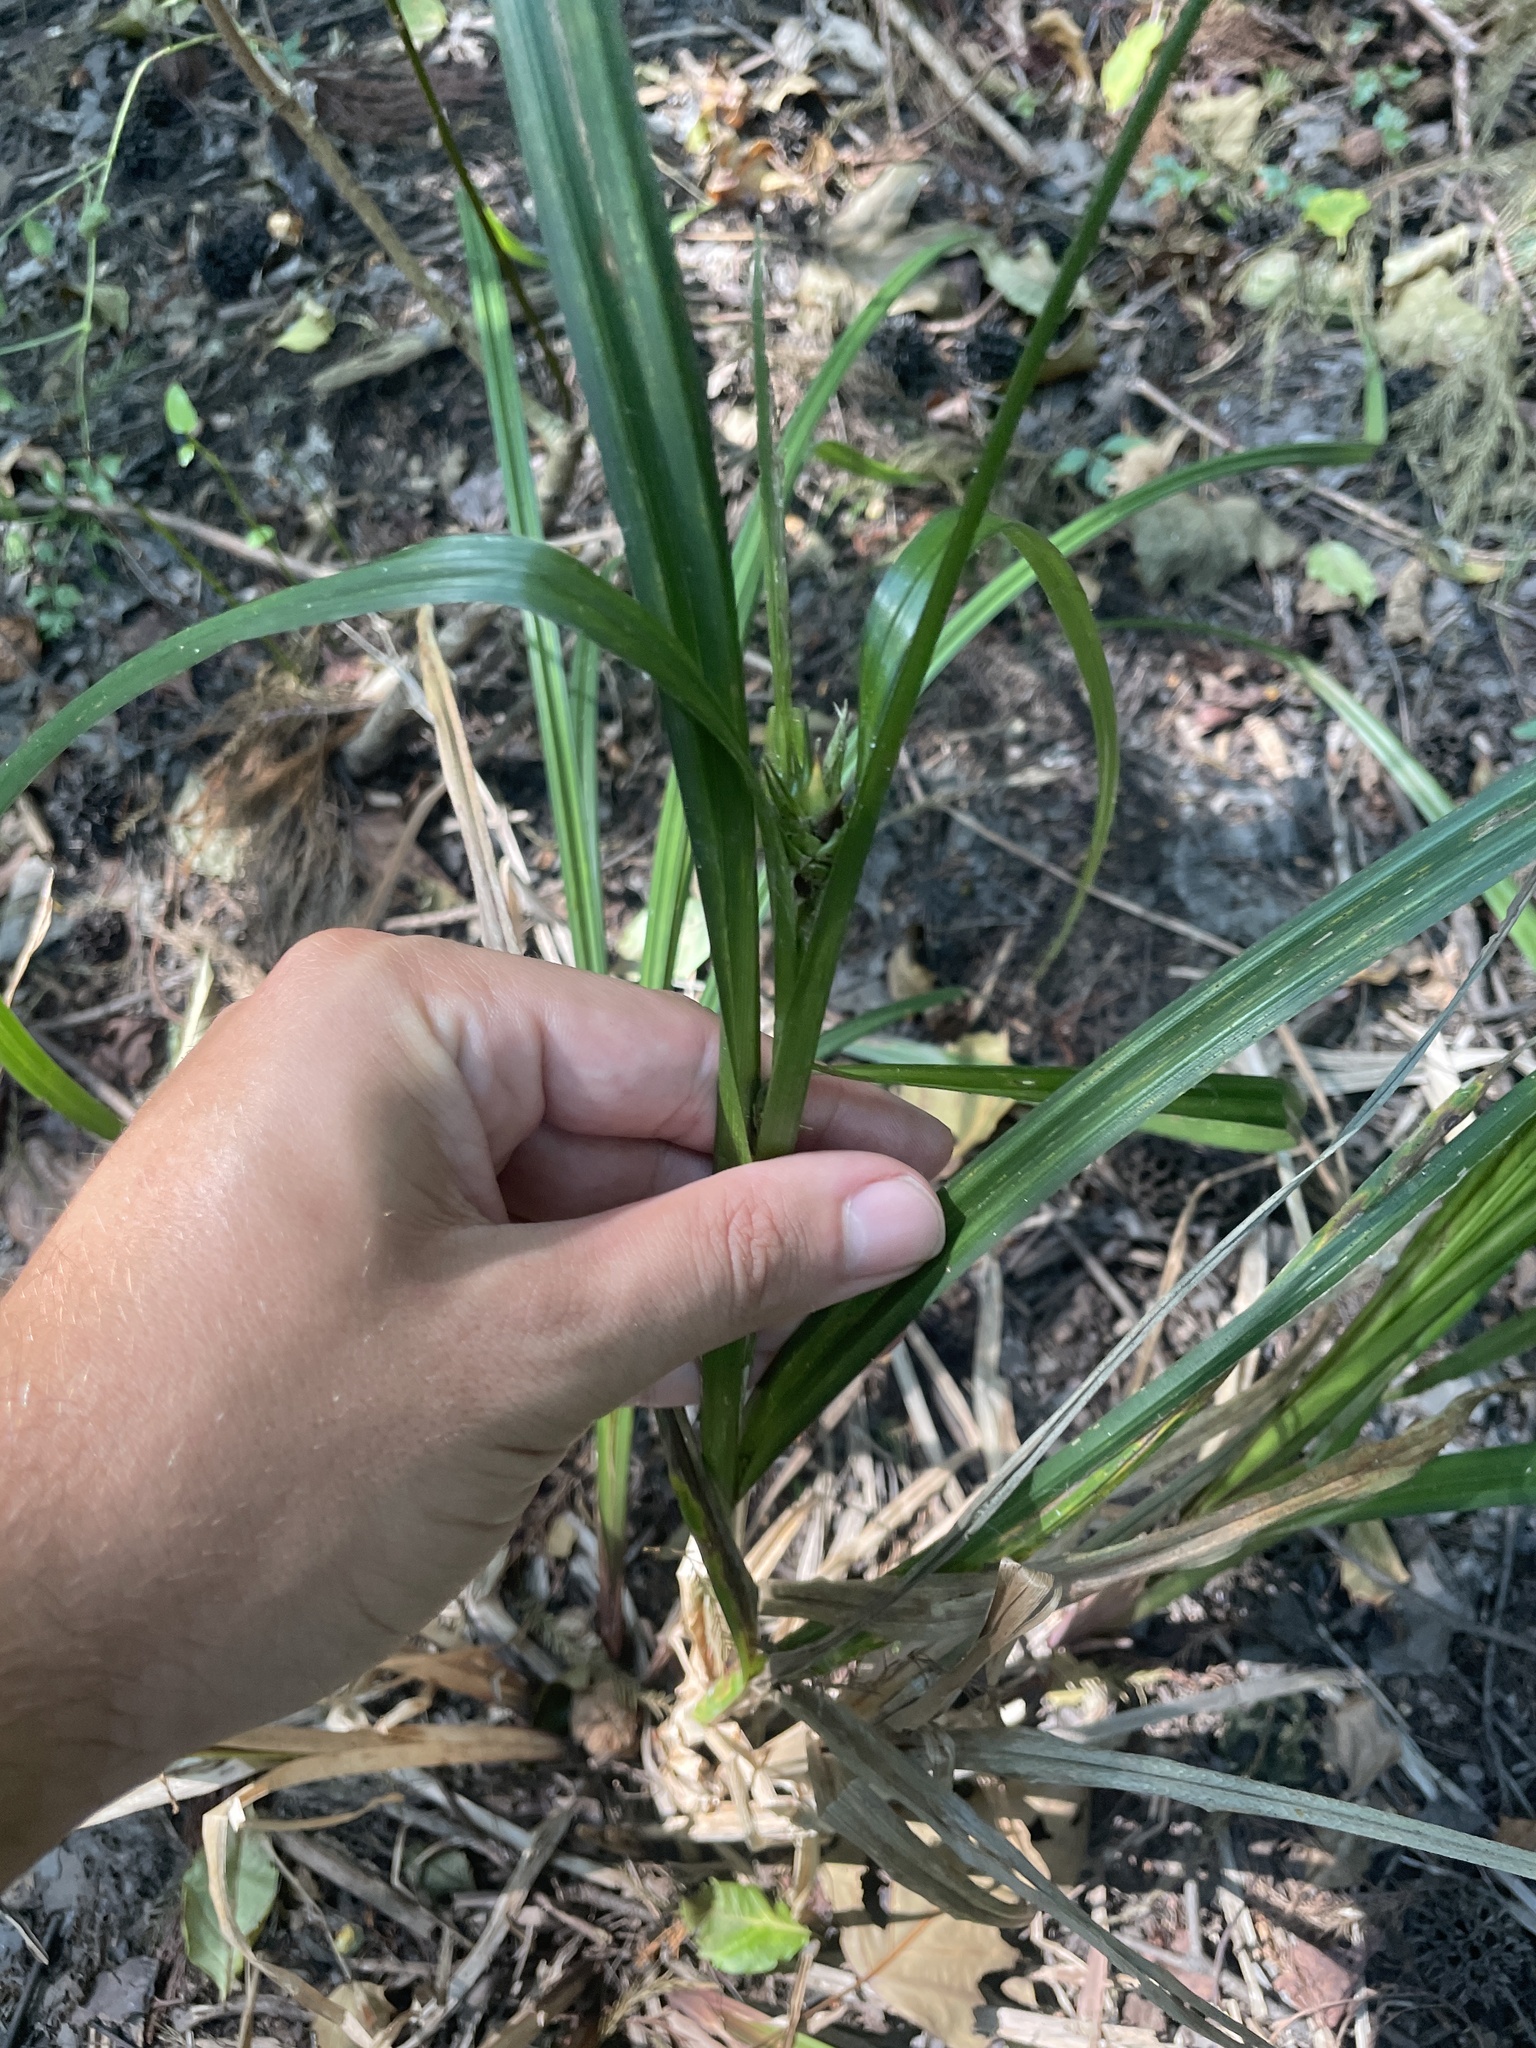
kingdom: Plantae
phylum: Tracheophyta
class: Liliopsida
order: Poales
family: Cyperaceae
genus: Carex
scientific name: Carex lupulina
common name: Hop sedge
